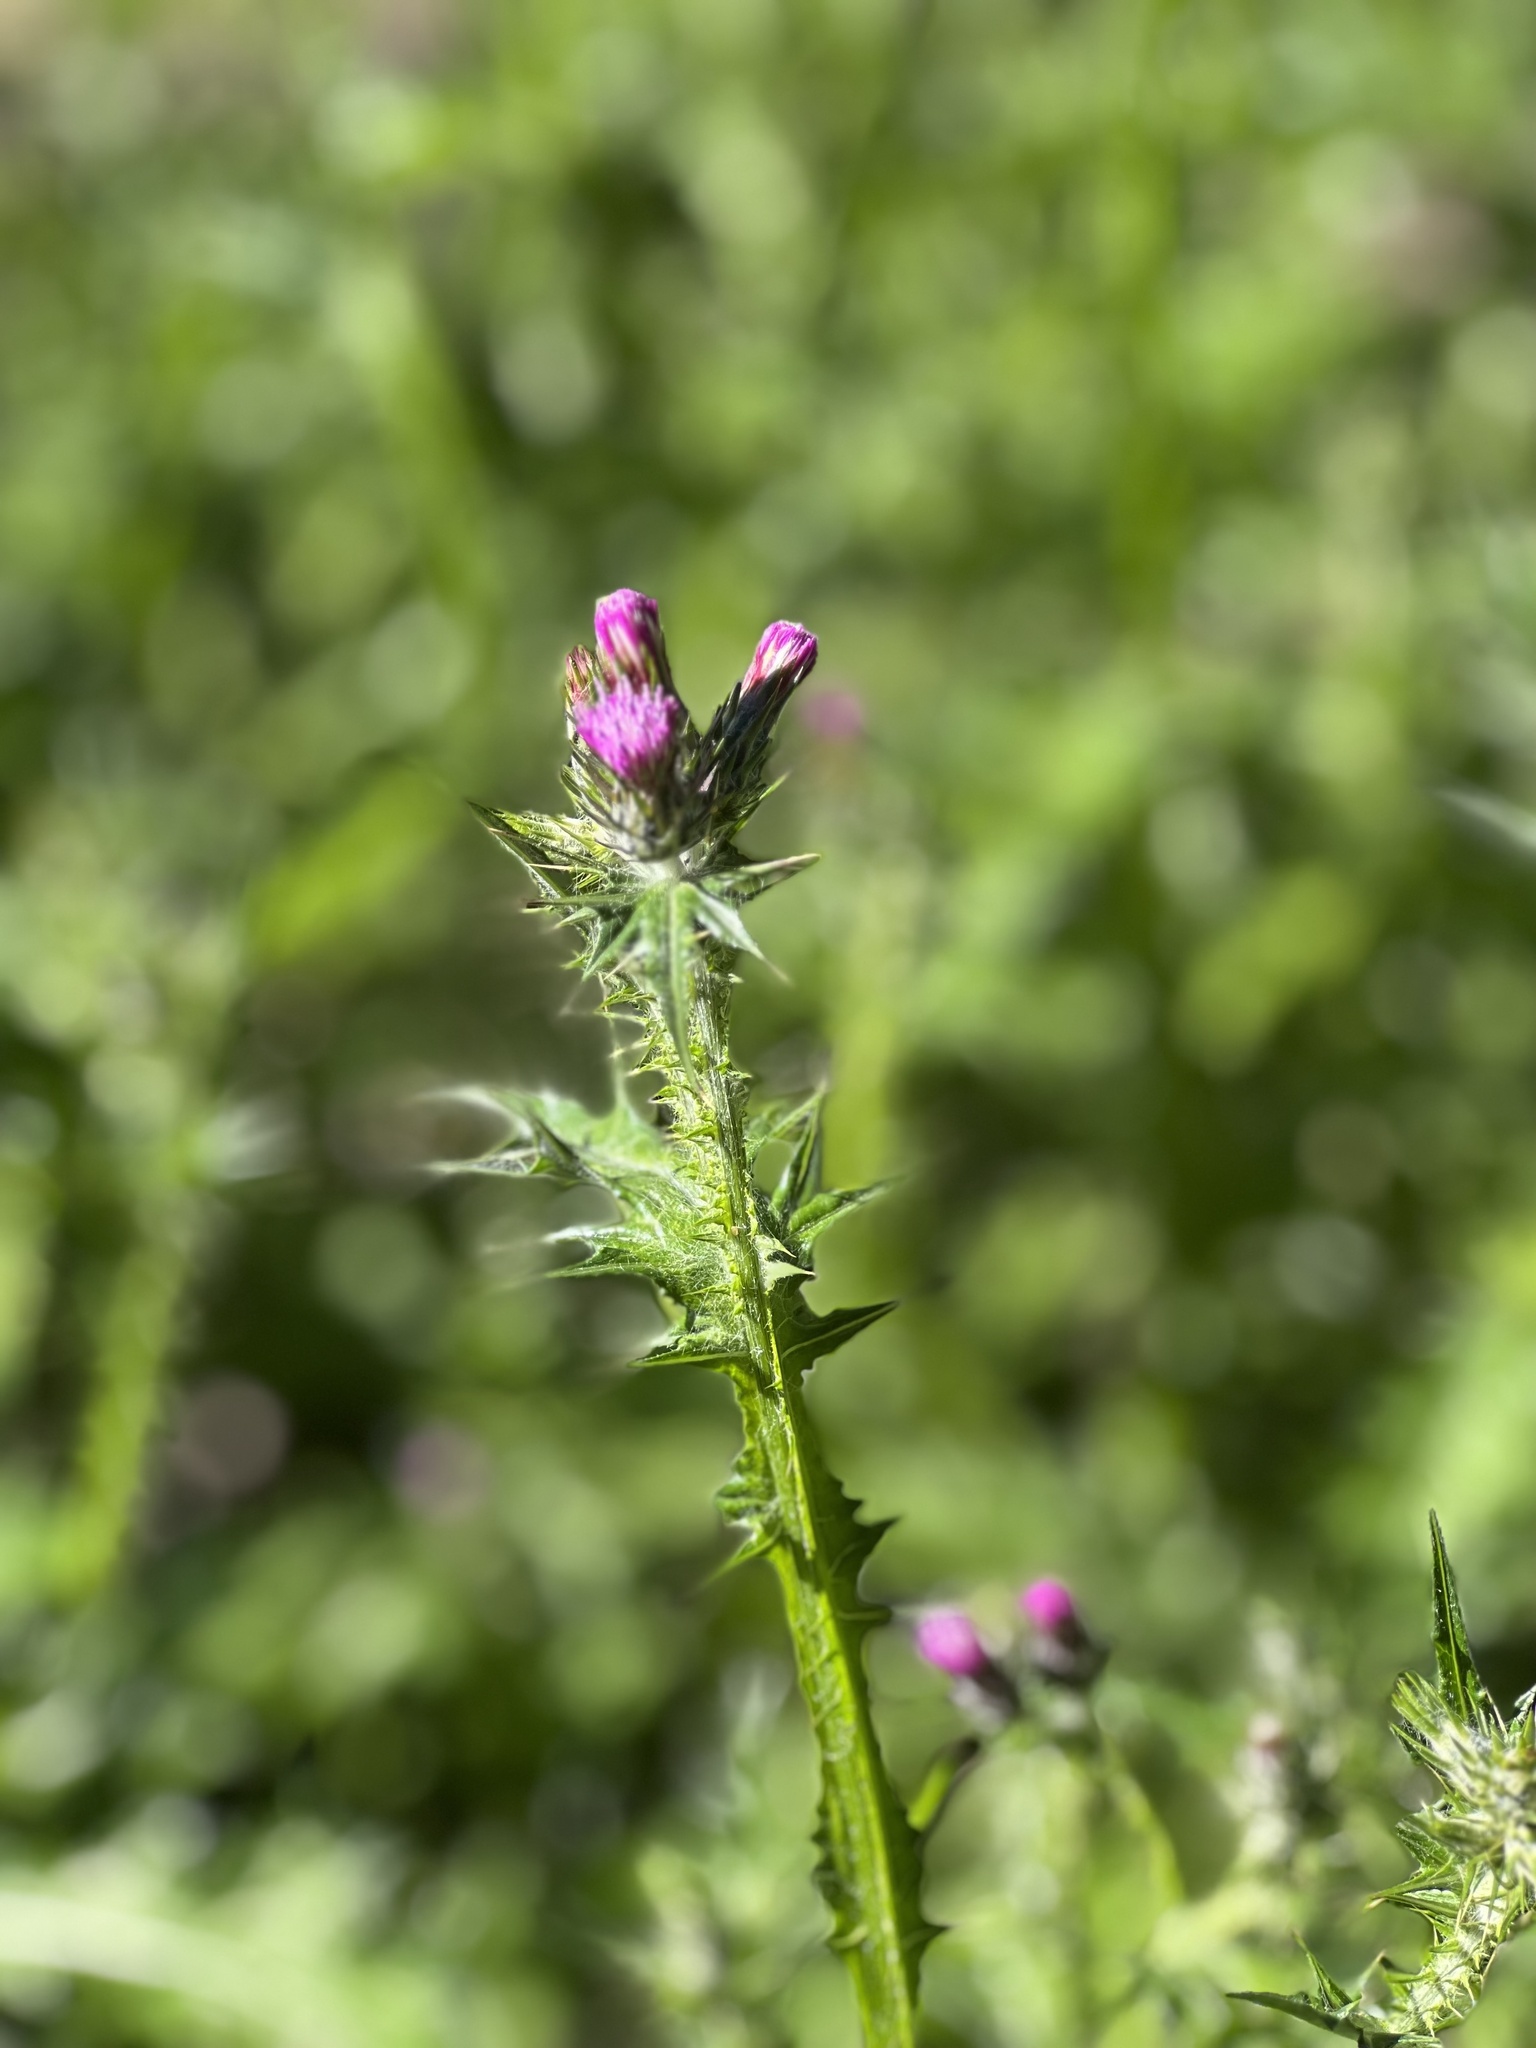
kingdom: Plantae
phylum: Tracheophyta
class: Magnoliopsida
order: Asterales
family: Asteraceae
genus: Carduus
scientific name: Carduus pycnocephalus
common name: Plymouth thistle
